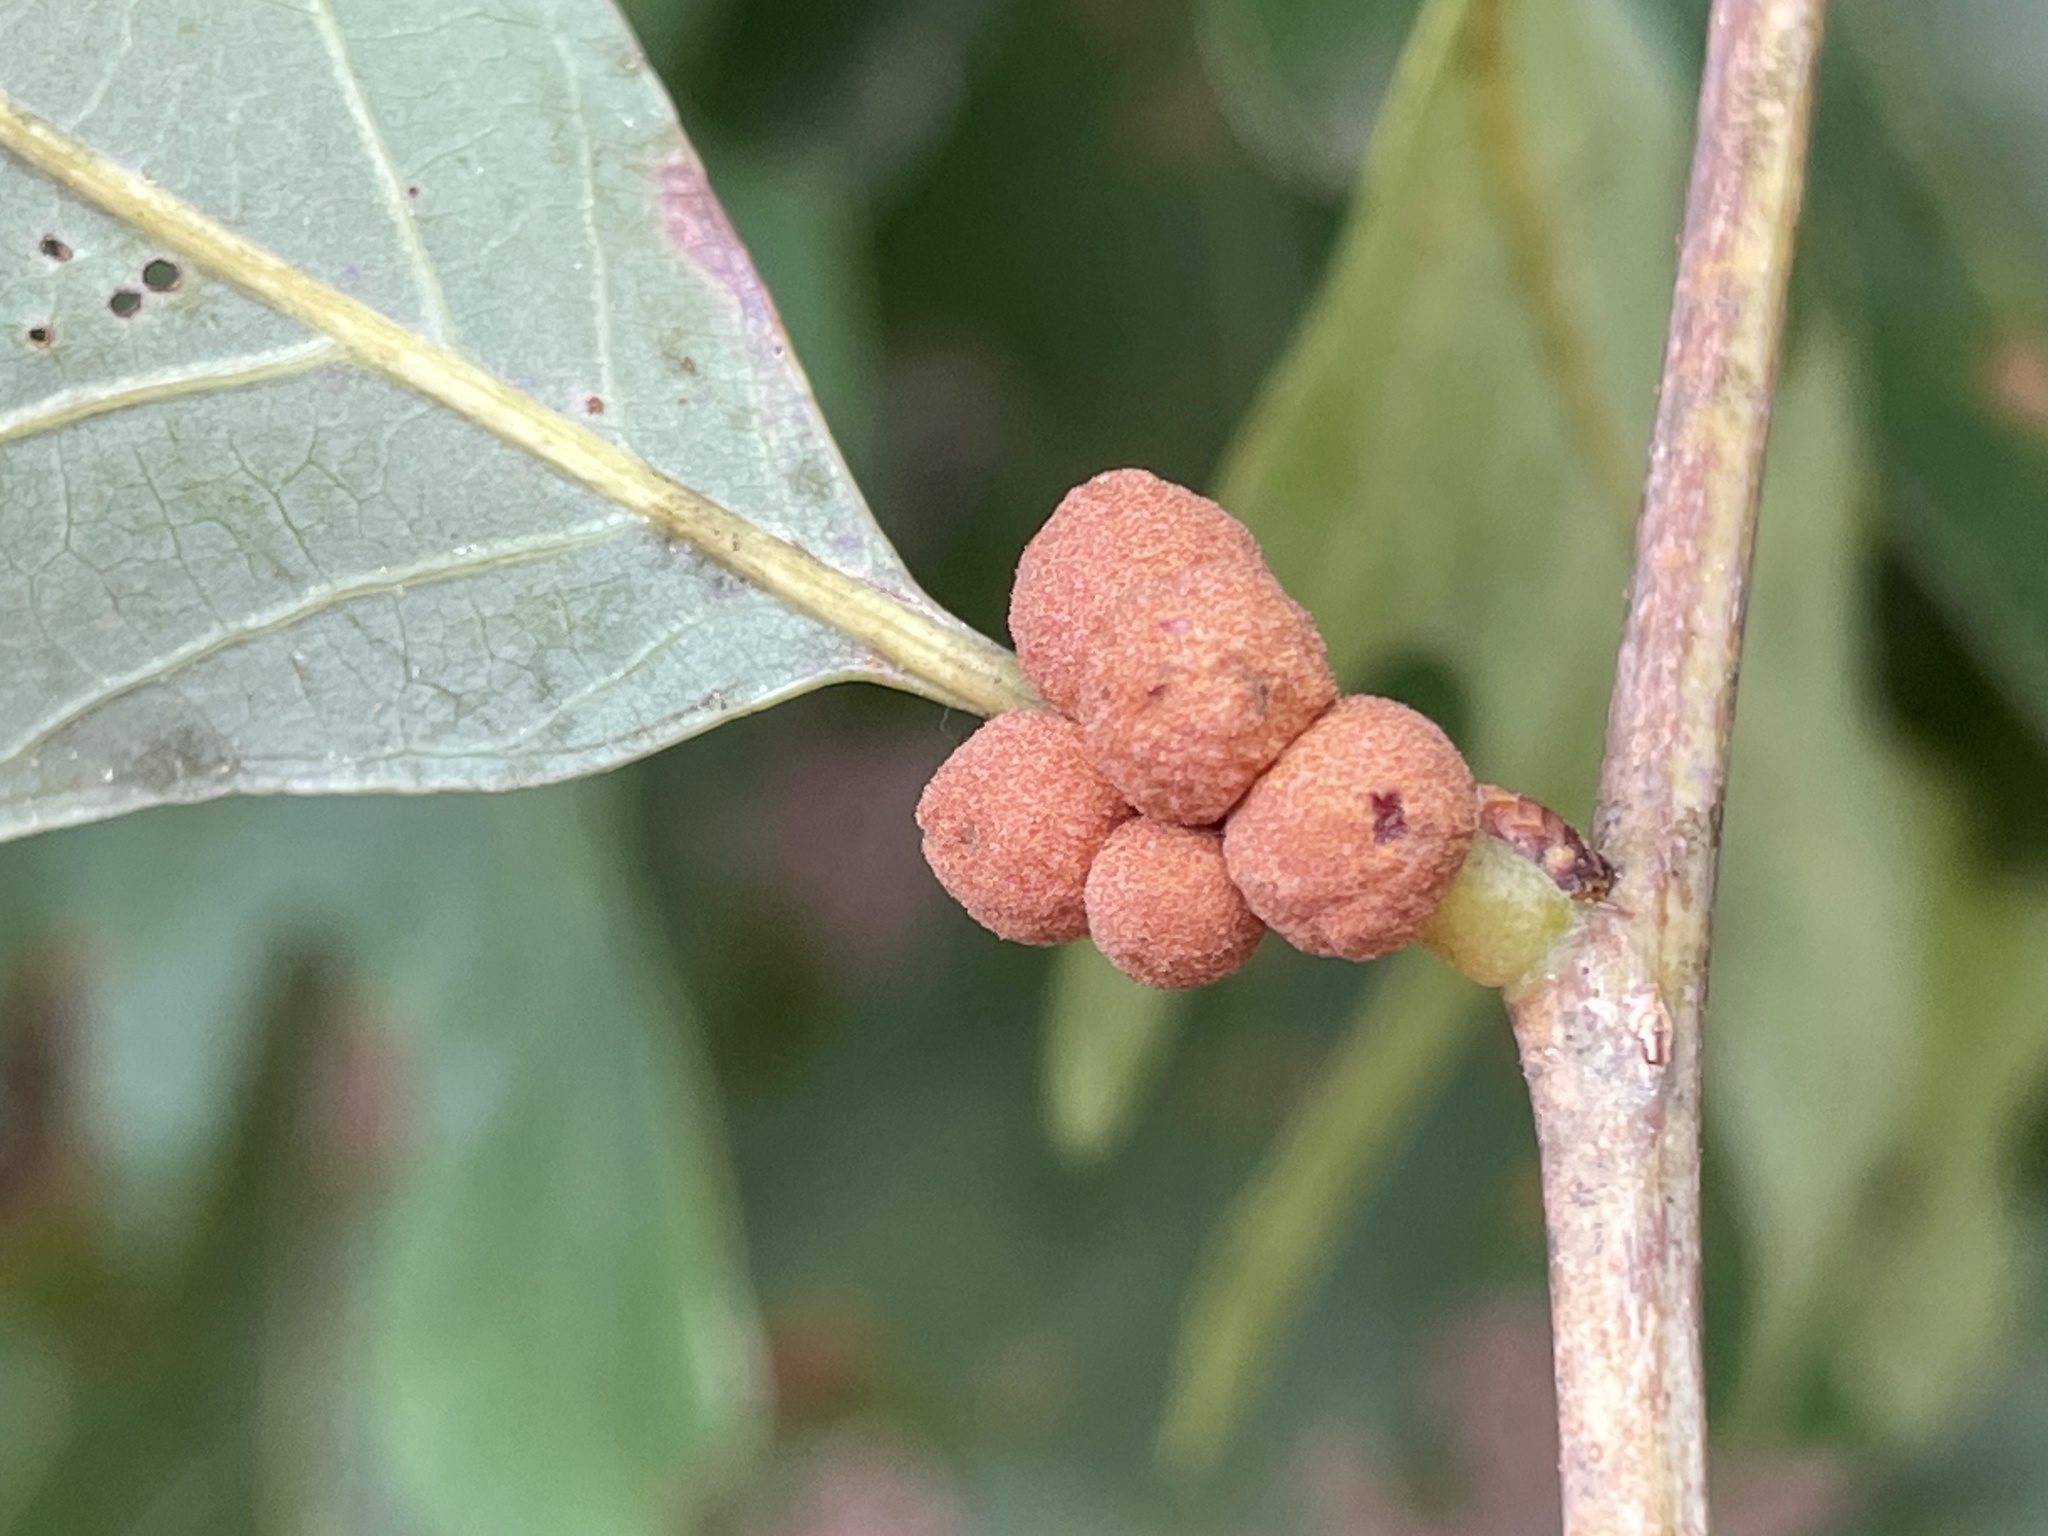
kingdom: Animalia
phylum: Arthropoda
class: Insecta
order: Hymenoptera
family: Cynipidae
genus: Andricus
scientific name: Andricus
